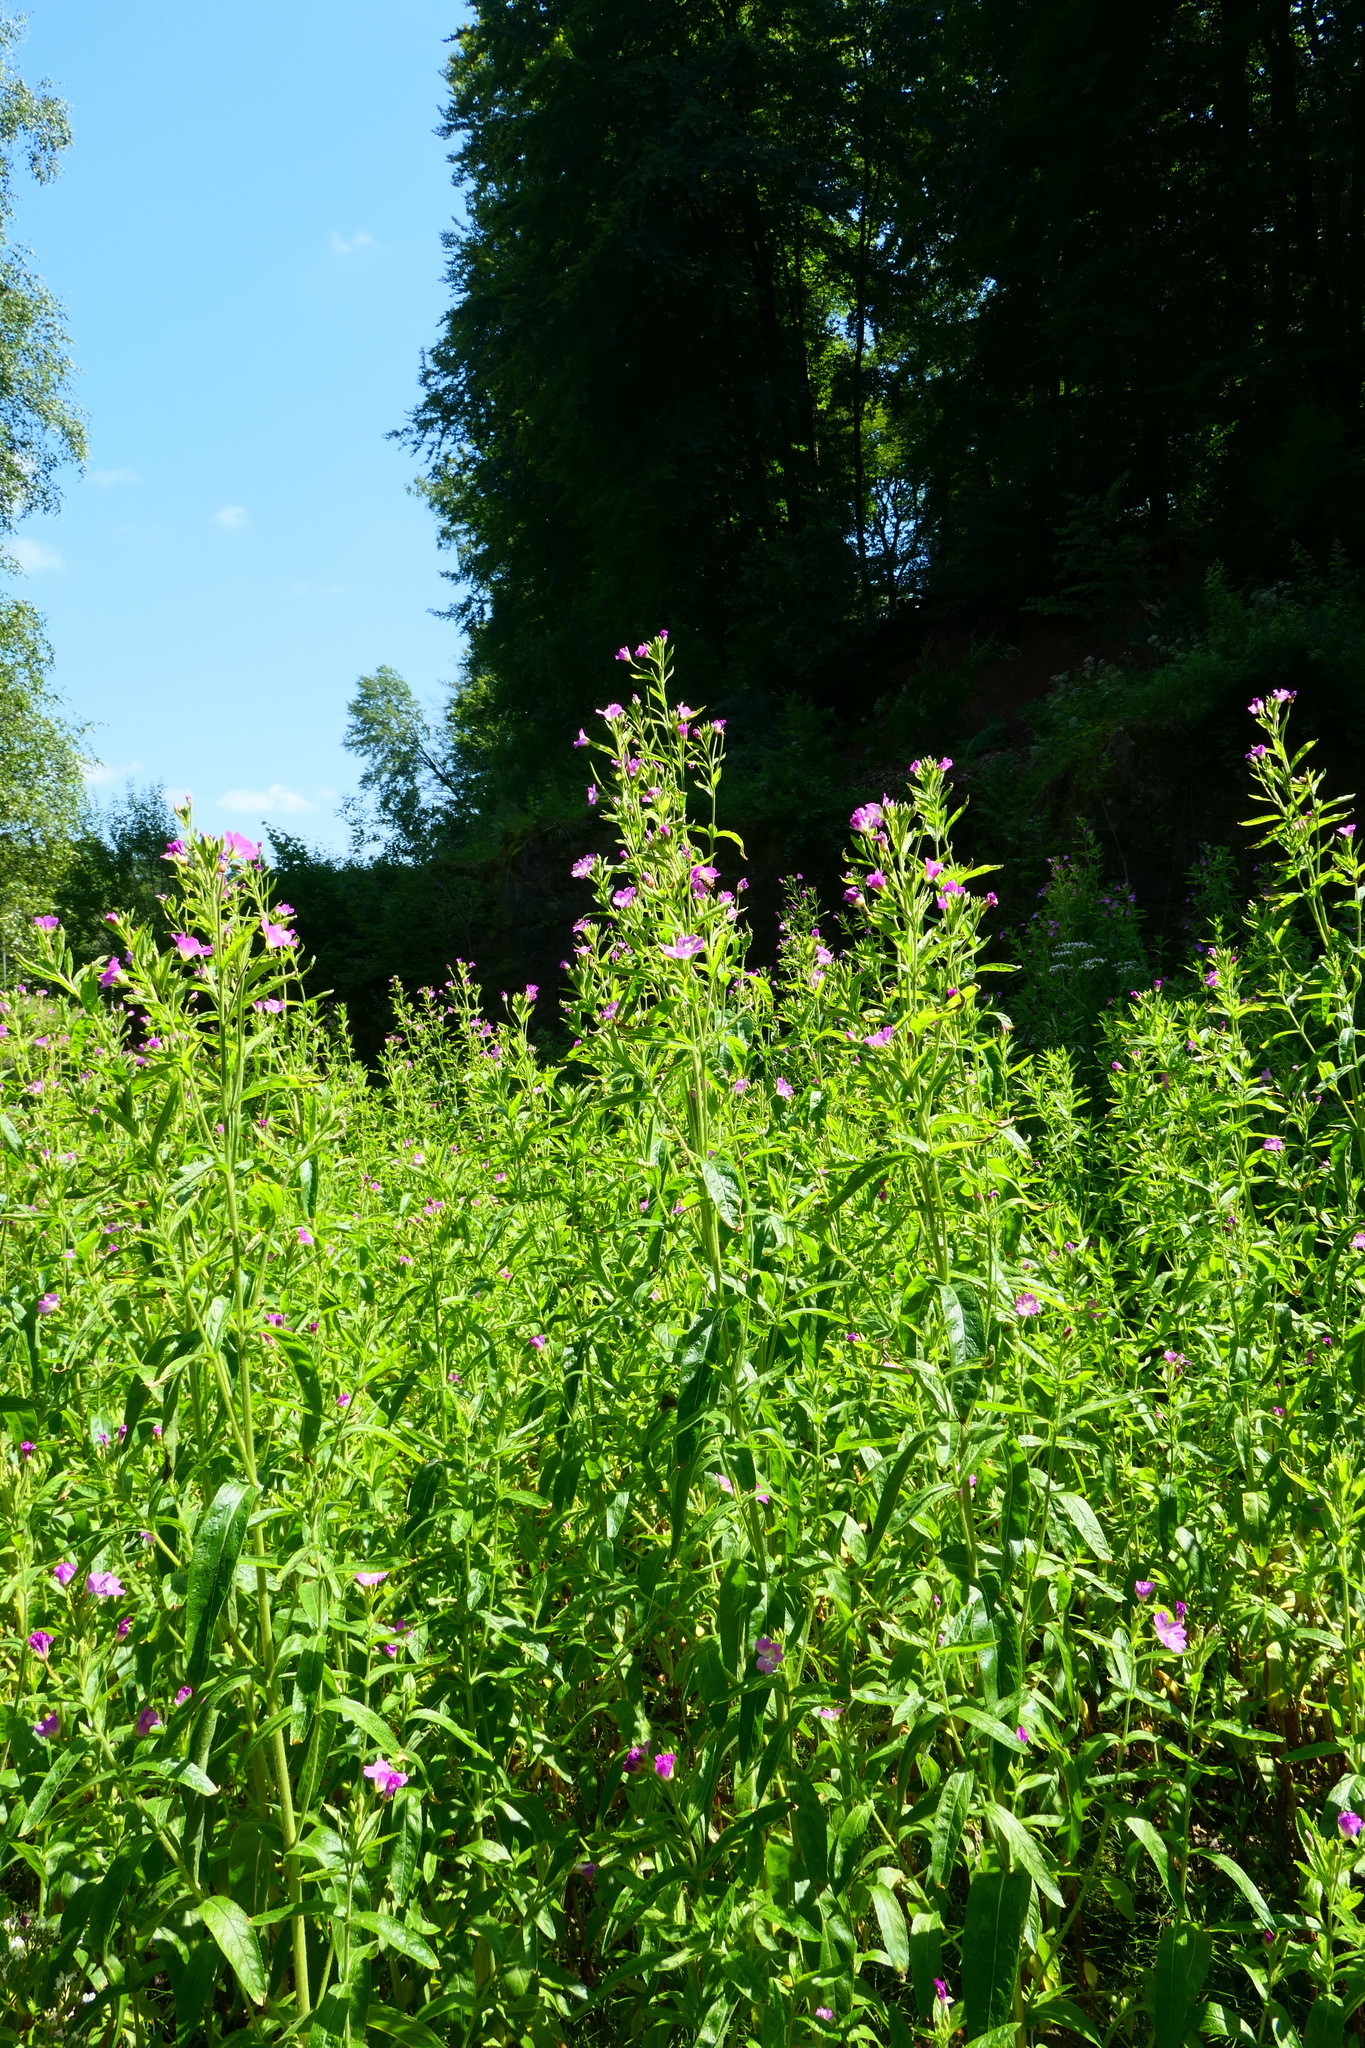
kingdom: Plantae
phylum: Tracheophyta
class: Magnoliopsida
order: Myrtales
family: Onagraceae
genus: Epilobium
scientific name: Epilobium hirsutum
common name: Great willowherb
